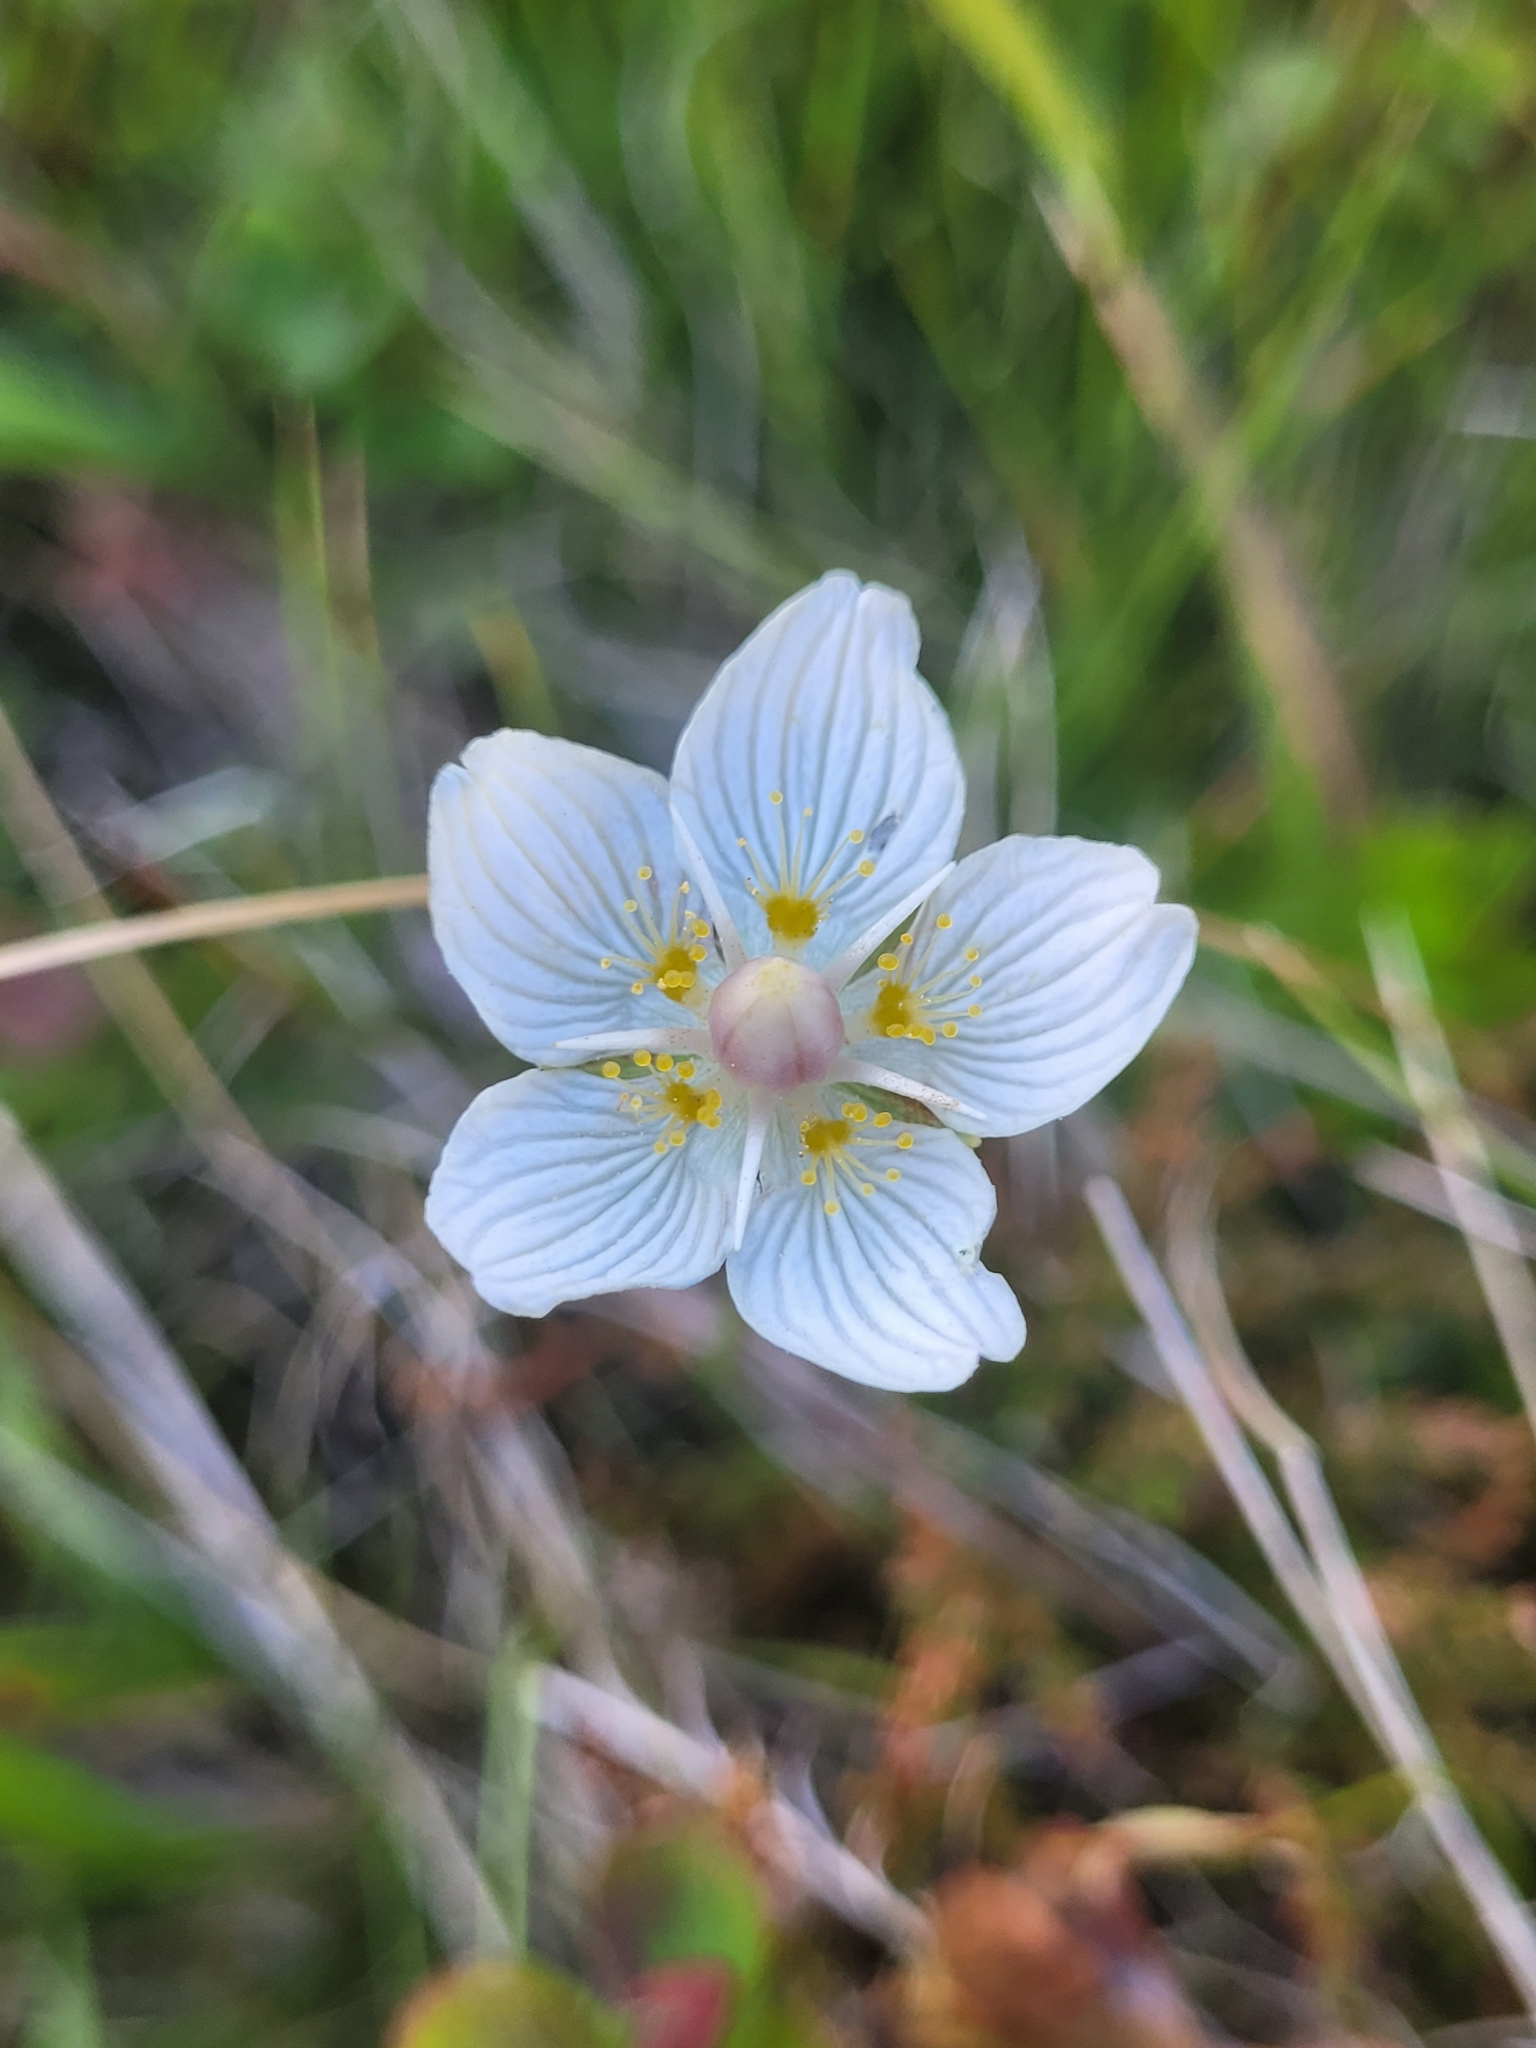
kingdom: Plantae
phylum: Tracheophyta
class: Magnoliopsida
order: Celastrales
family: Parnassiaceae
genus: Parnassia
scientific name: Parnassia palustris
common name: Grass-of-parnassus
